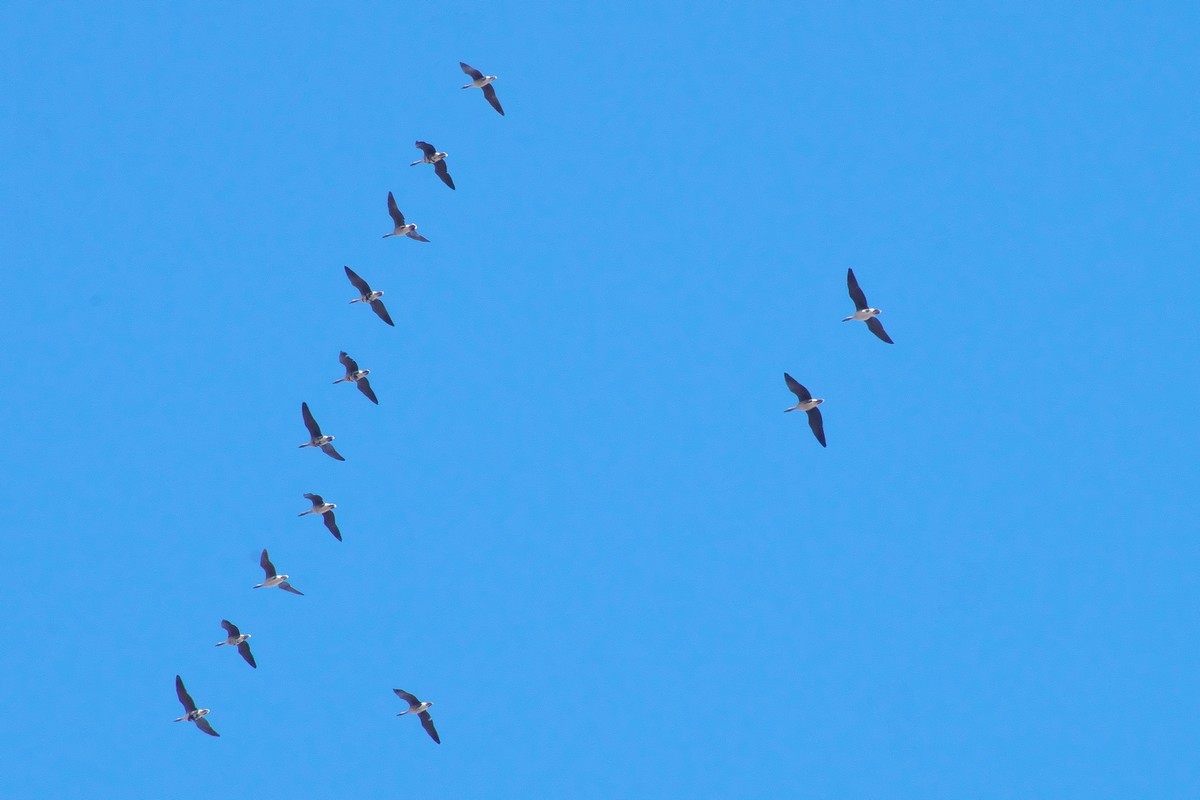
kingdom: Animalia
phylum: Chordata
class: Aves
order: Anseriformes
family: Anatidae
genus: Anser
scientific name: Anser albifrons
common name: Greater white-fronted goose
